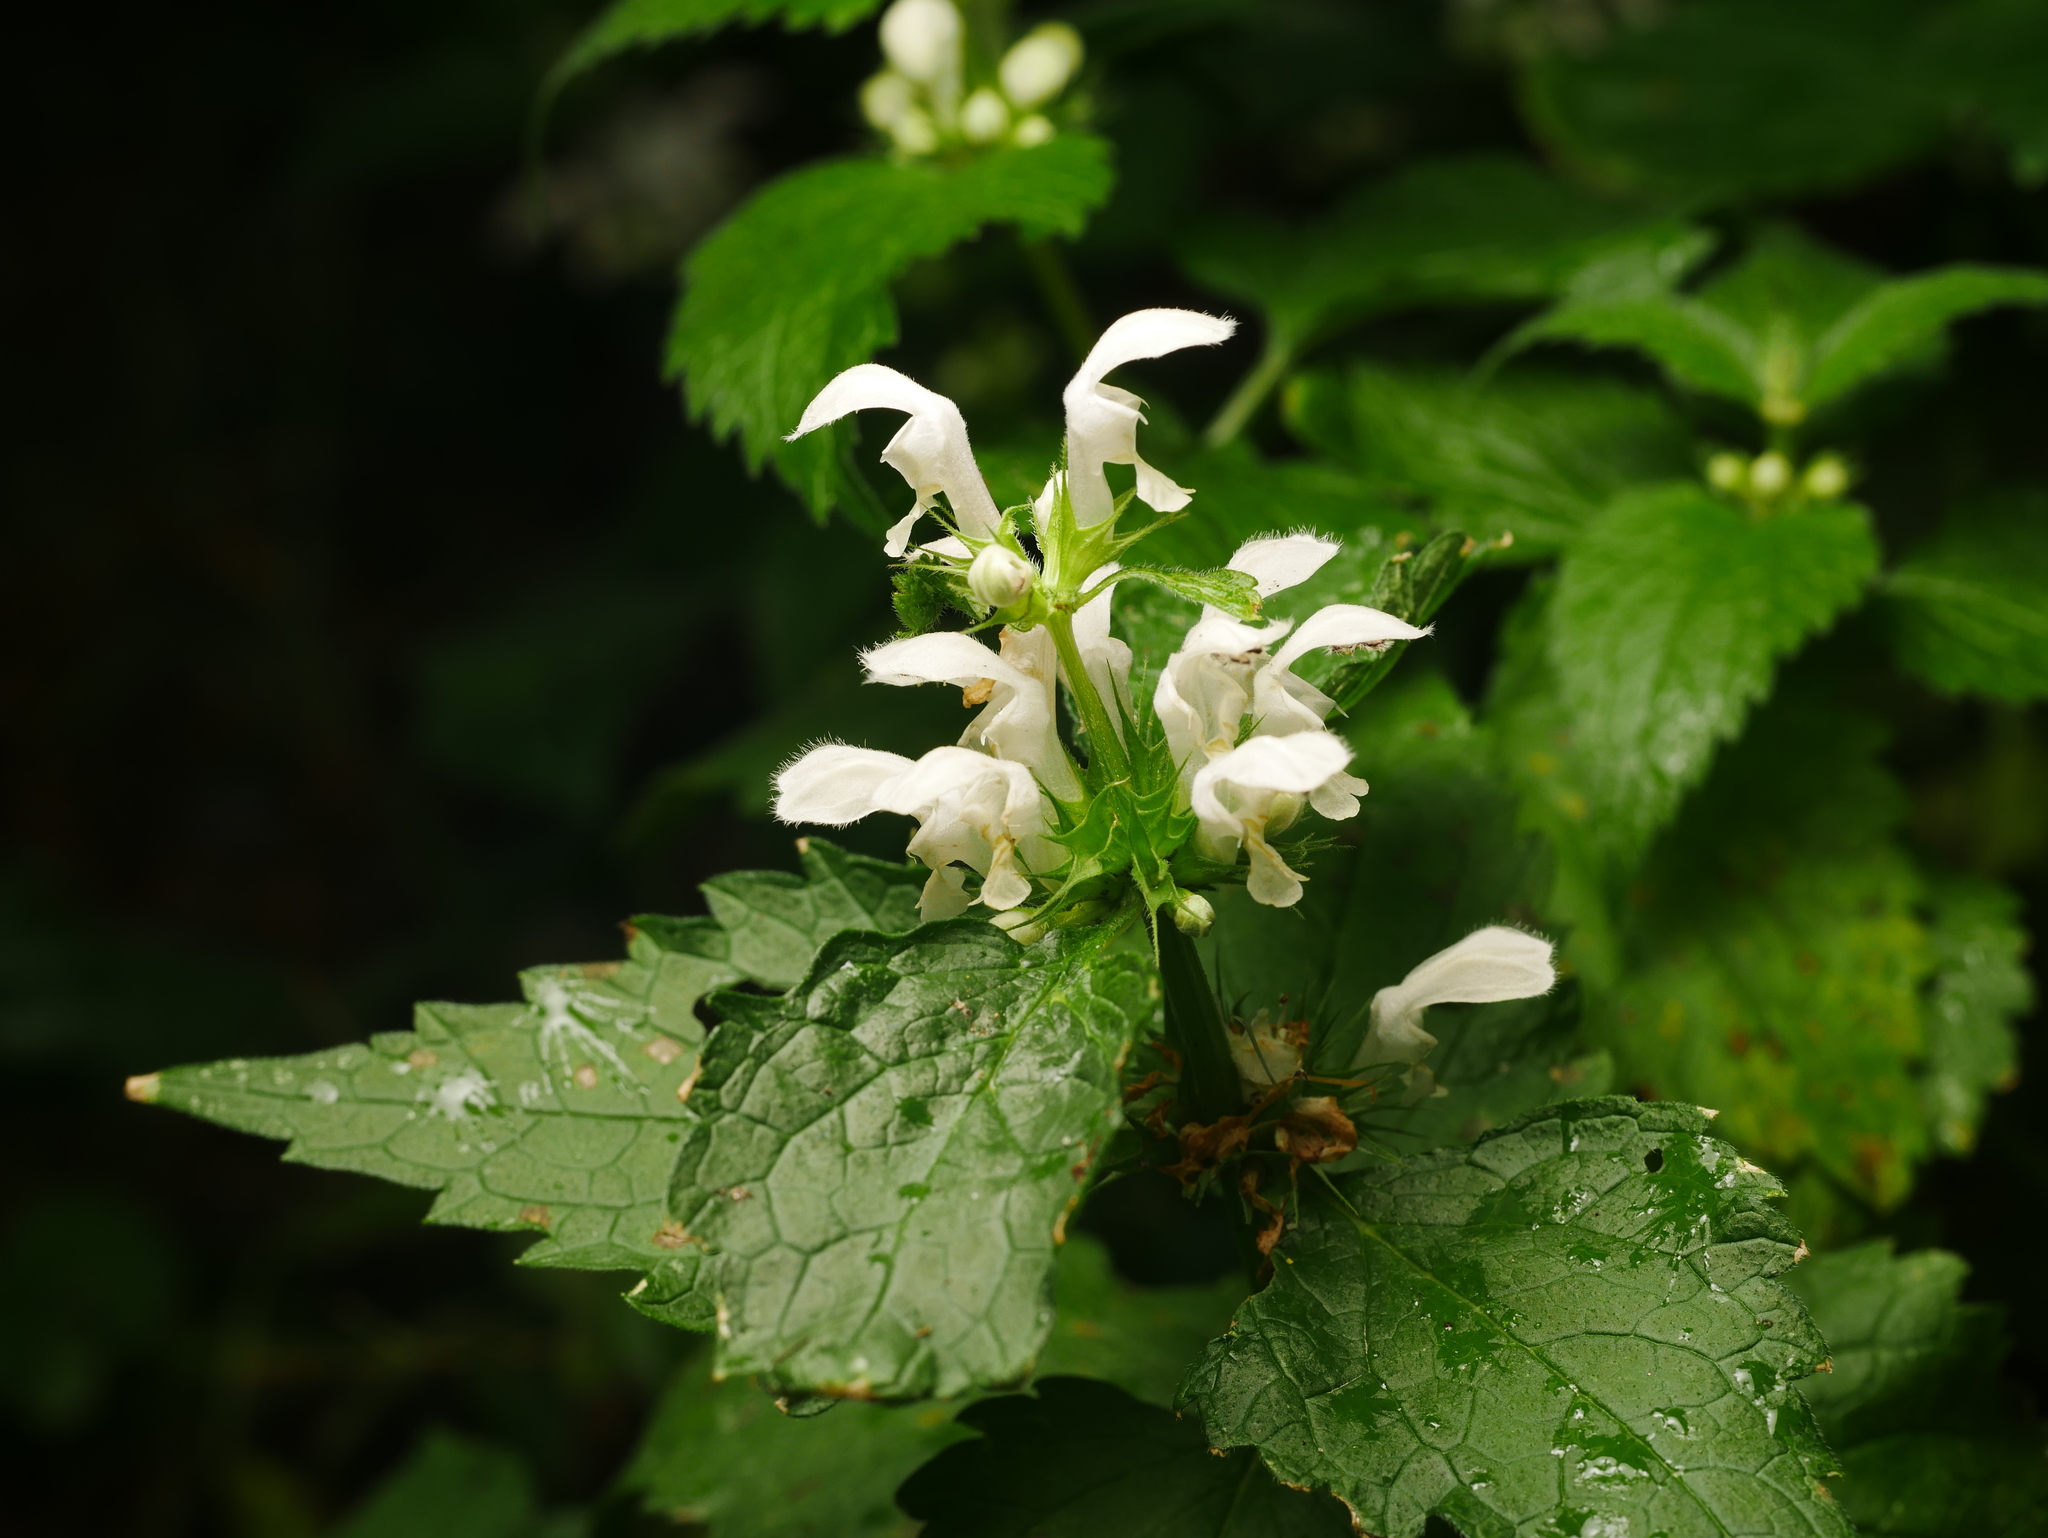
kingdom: Plantae
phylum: Tracheophyta
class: Magnoliopsida
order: Lamiales
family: Lamiaceae
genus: Lamium
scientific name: Lamium album
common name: White dead-nettle
